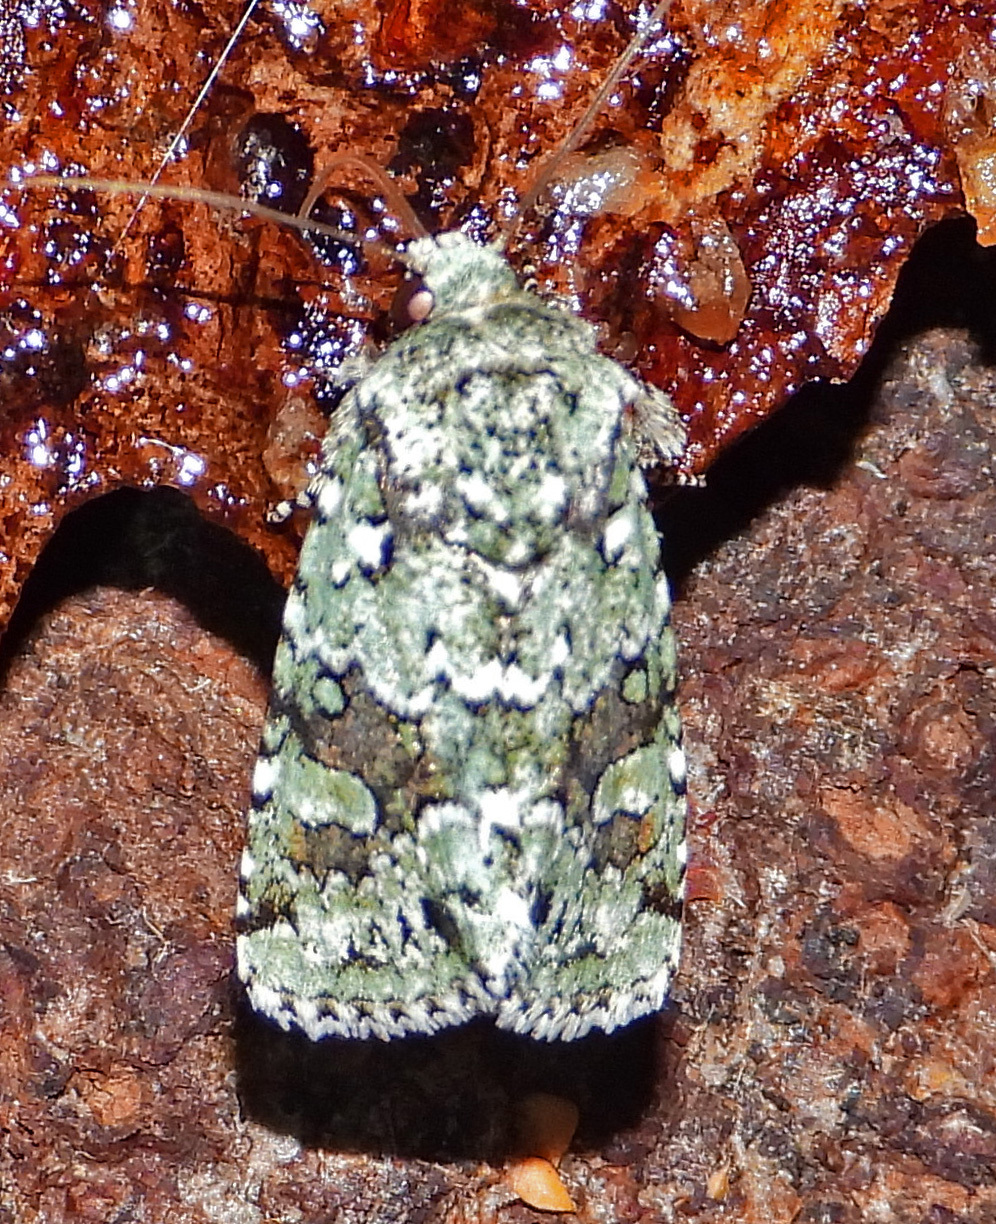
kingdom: Animalia
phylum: Arthropoda
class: Insecta
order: Lepidoptera
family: Noctuidae
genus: Lacinipolia
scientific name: Lacinipolia laudabilis
